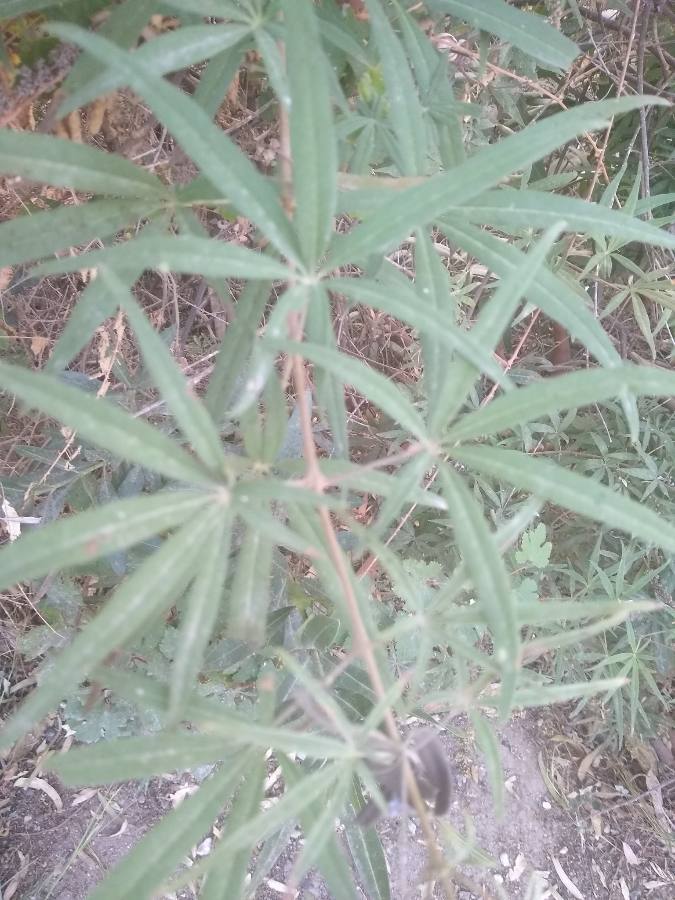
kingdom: Plantae
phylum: Tracheophyta
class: Magnoliopsida
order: Lamiales
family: Lamiaceae
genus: Vitex
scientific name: Vitex agnus-castus
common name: Chasteberry
